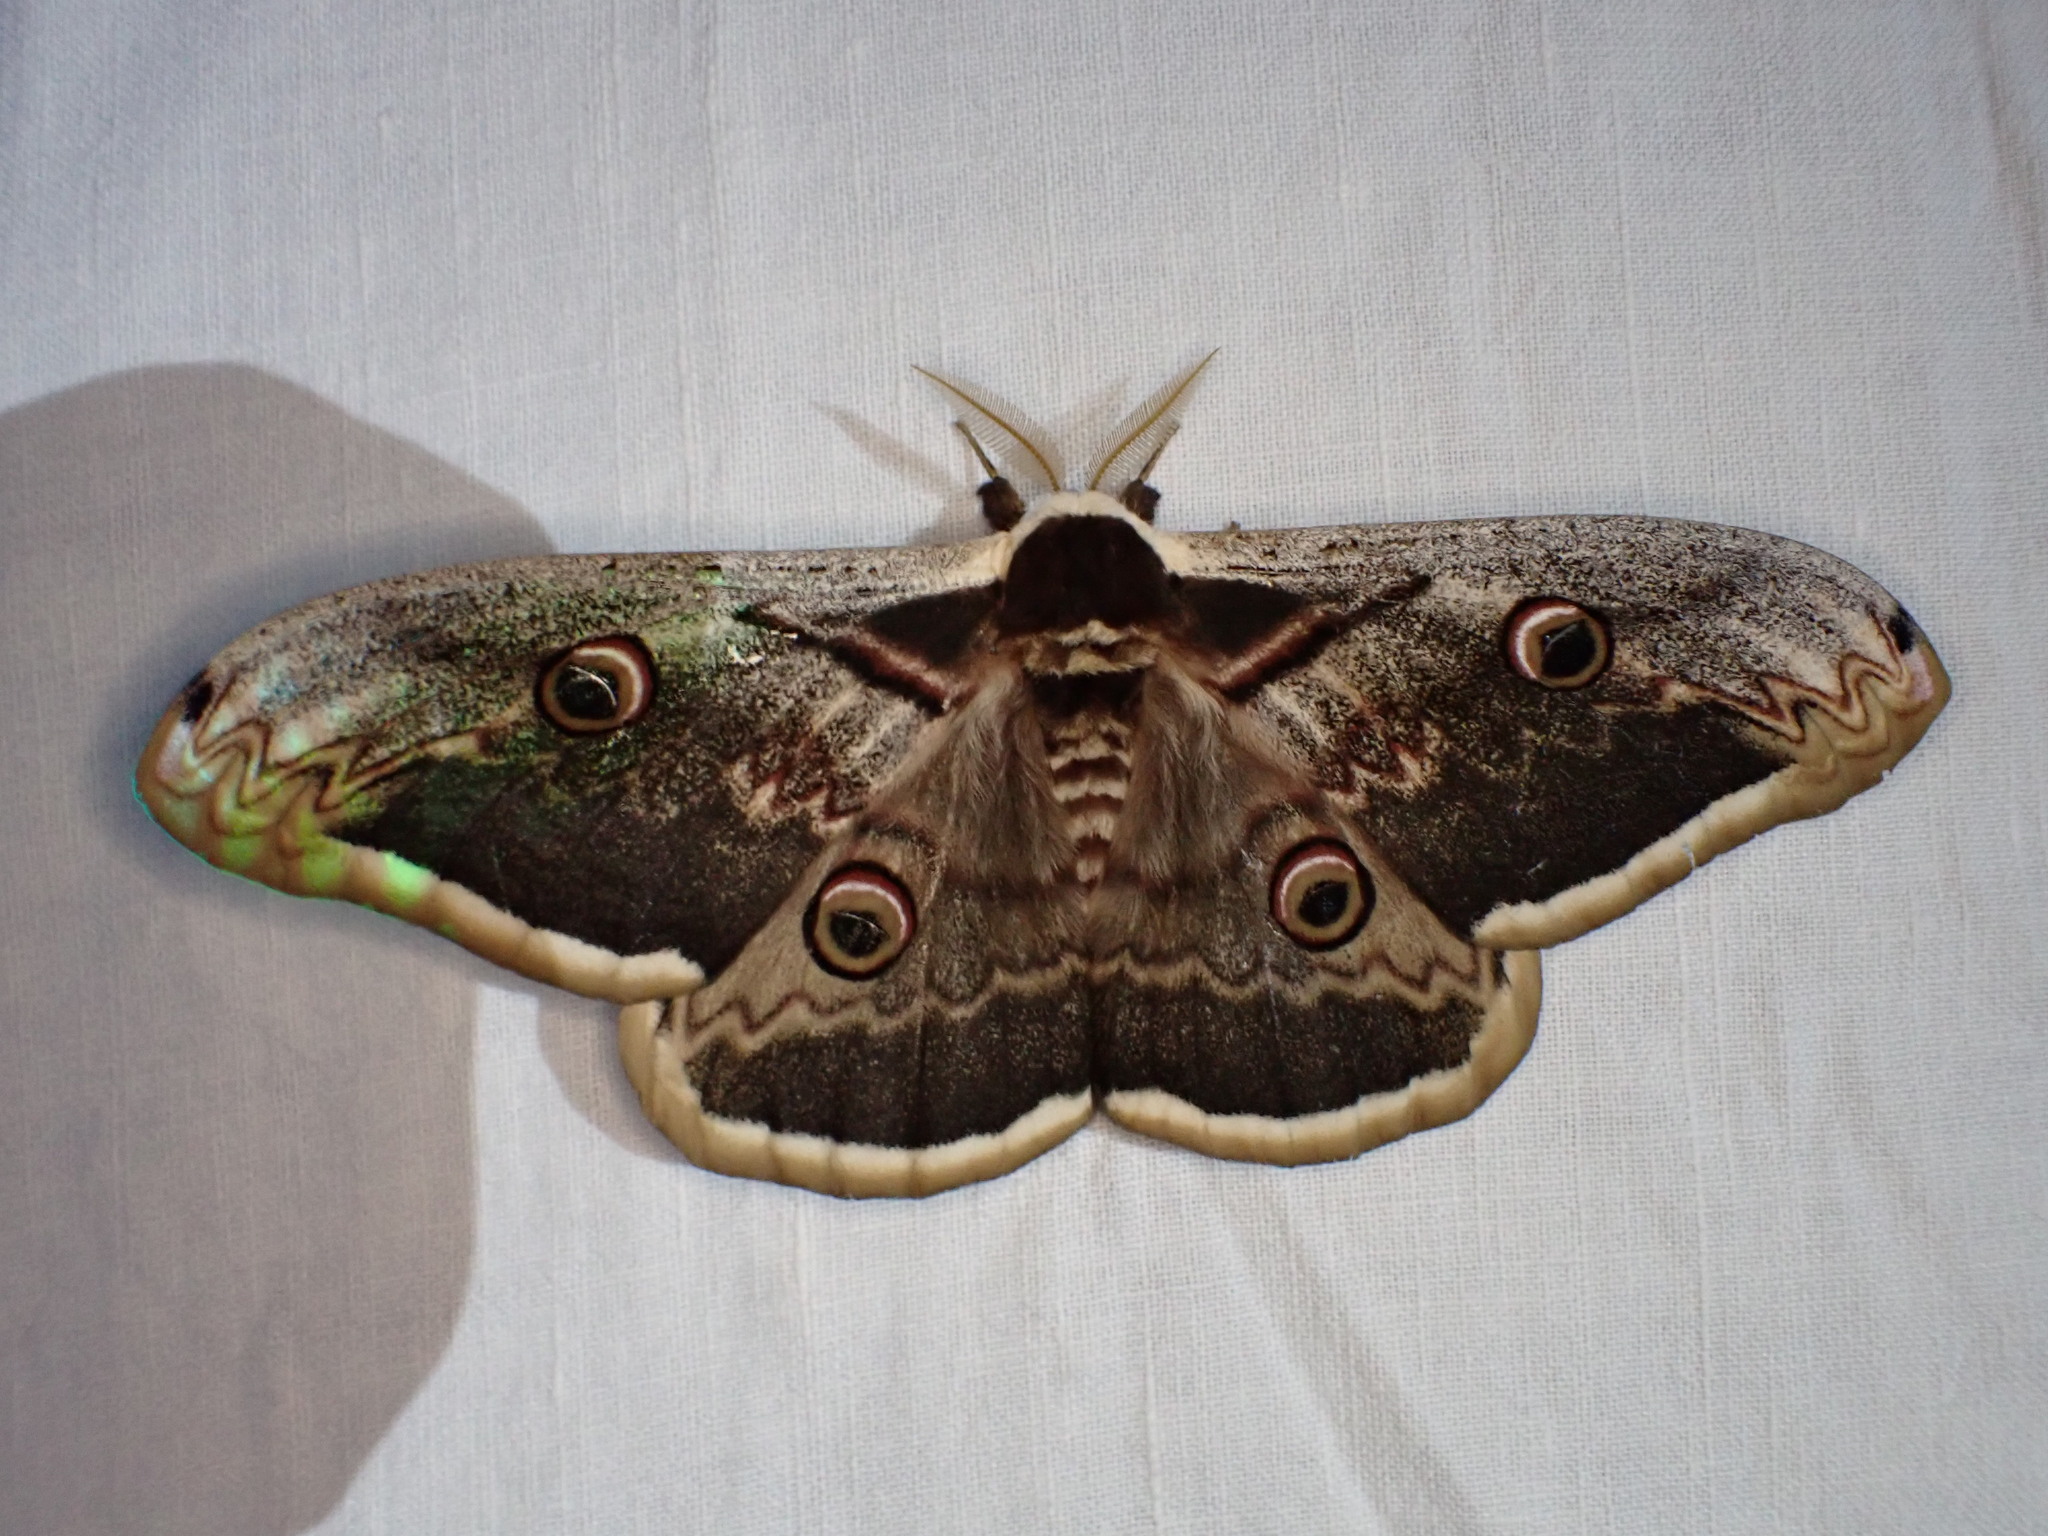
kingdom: Animalia
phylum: Arthropoda
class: Insecta
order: Lepidoptera
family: Saturniidae
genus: Saturnia
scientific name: Saturnia pyri
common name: Great peacock moth
